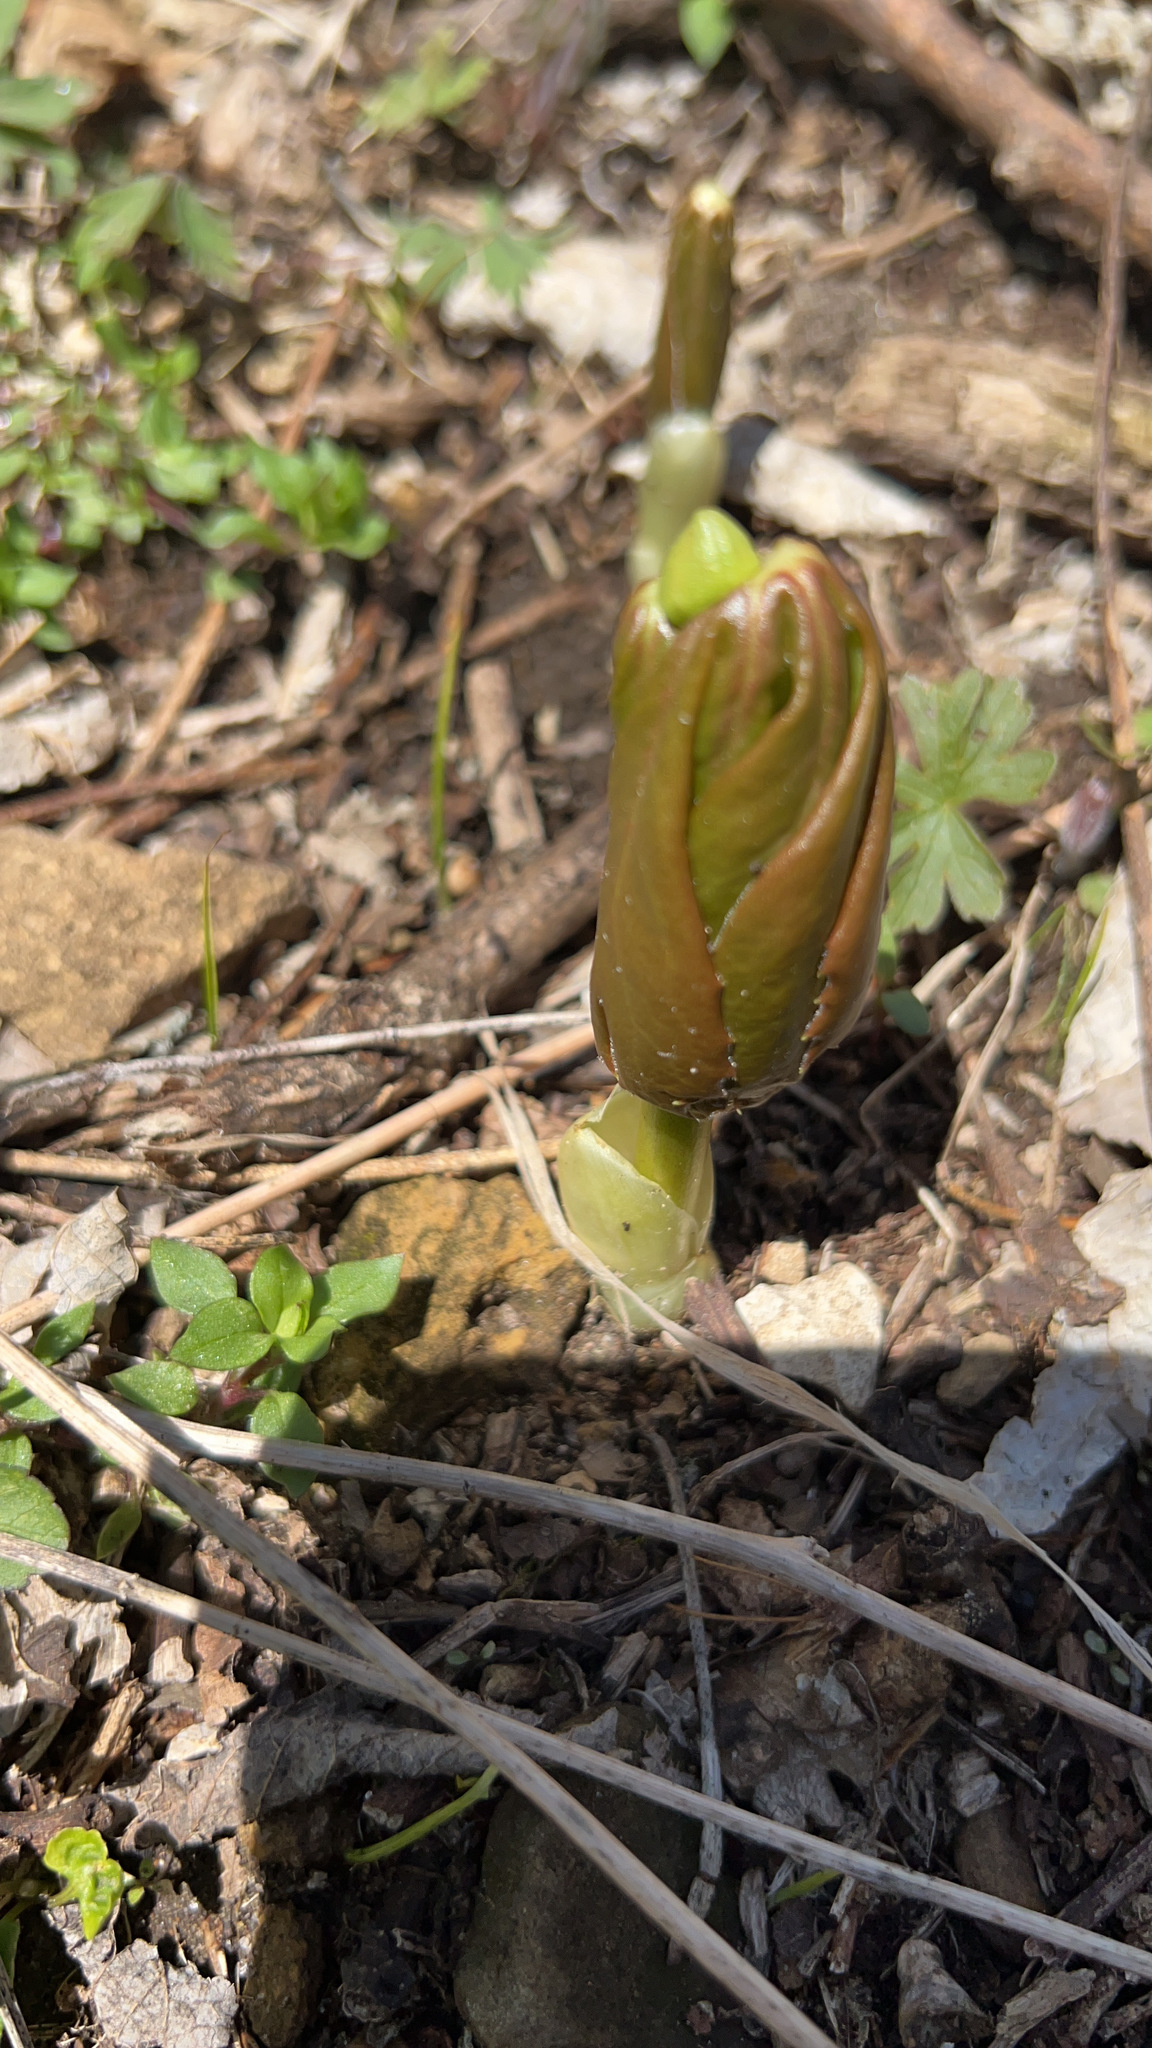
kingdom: Plantae
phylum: Tracheophyta
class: Magnoliopsida
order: Ranunculales
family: Berberidaceae
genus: Podophyllum
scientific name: Podophyllum peltatum
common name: Wild mandrake
